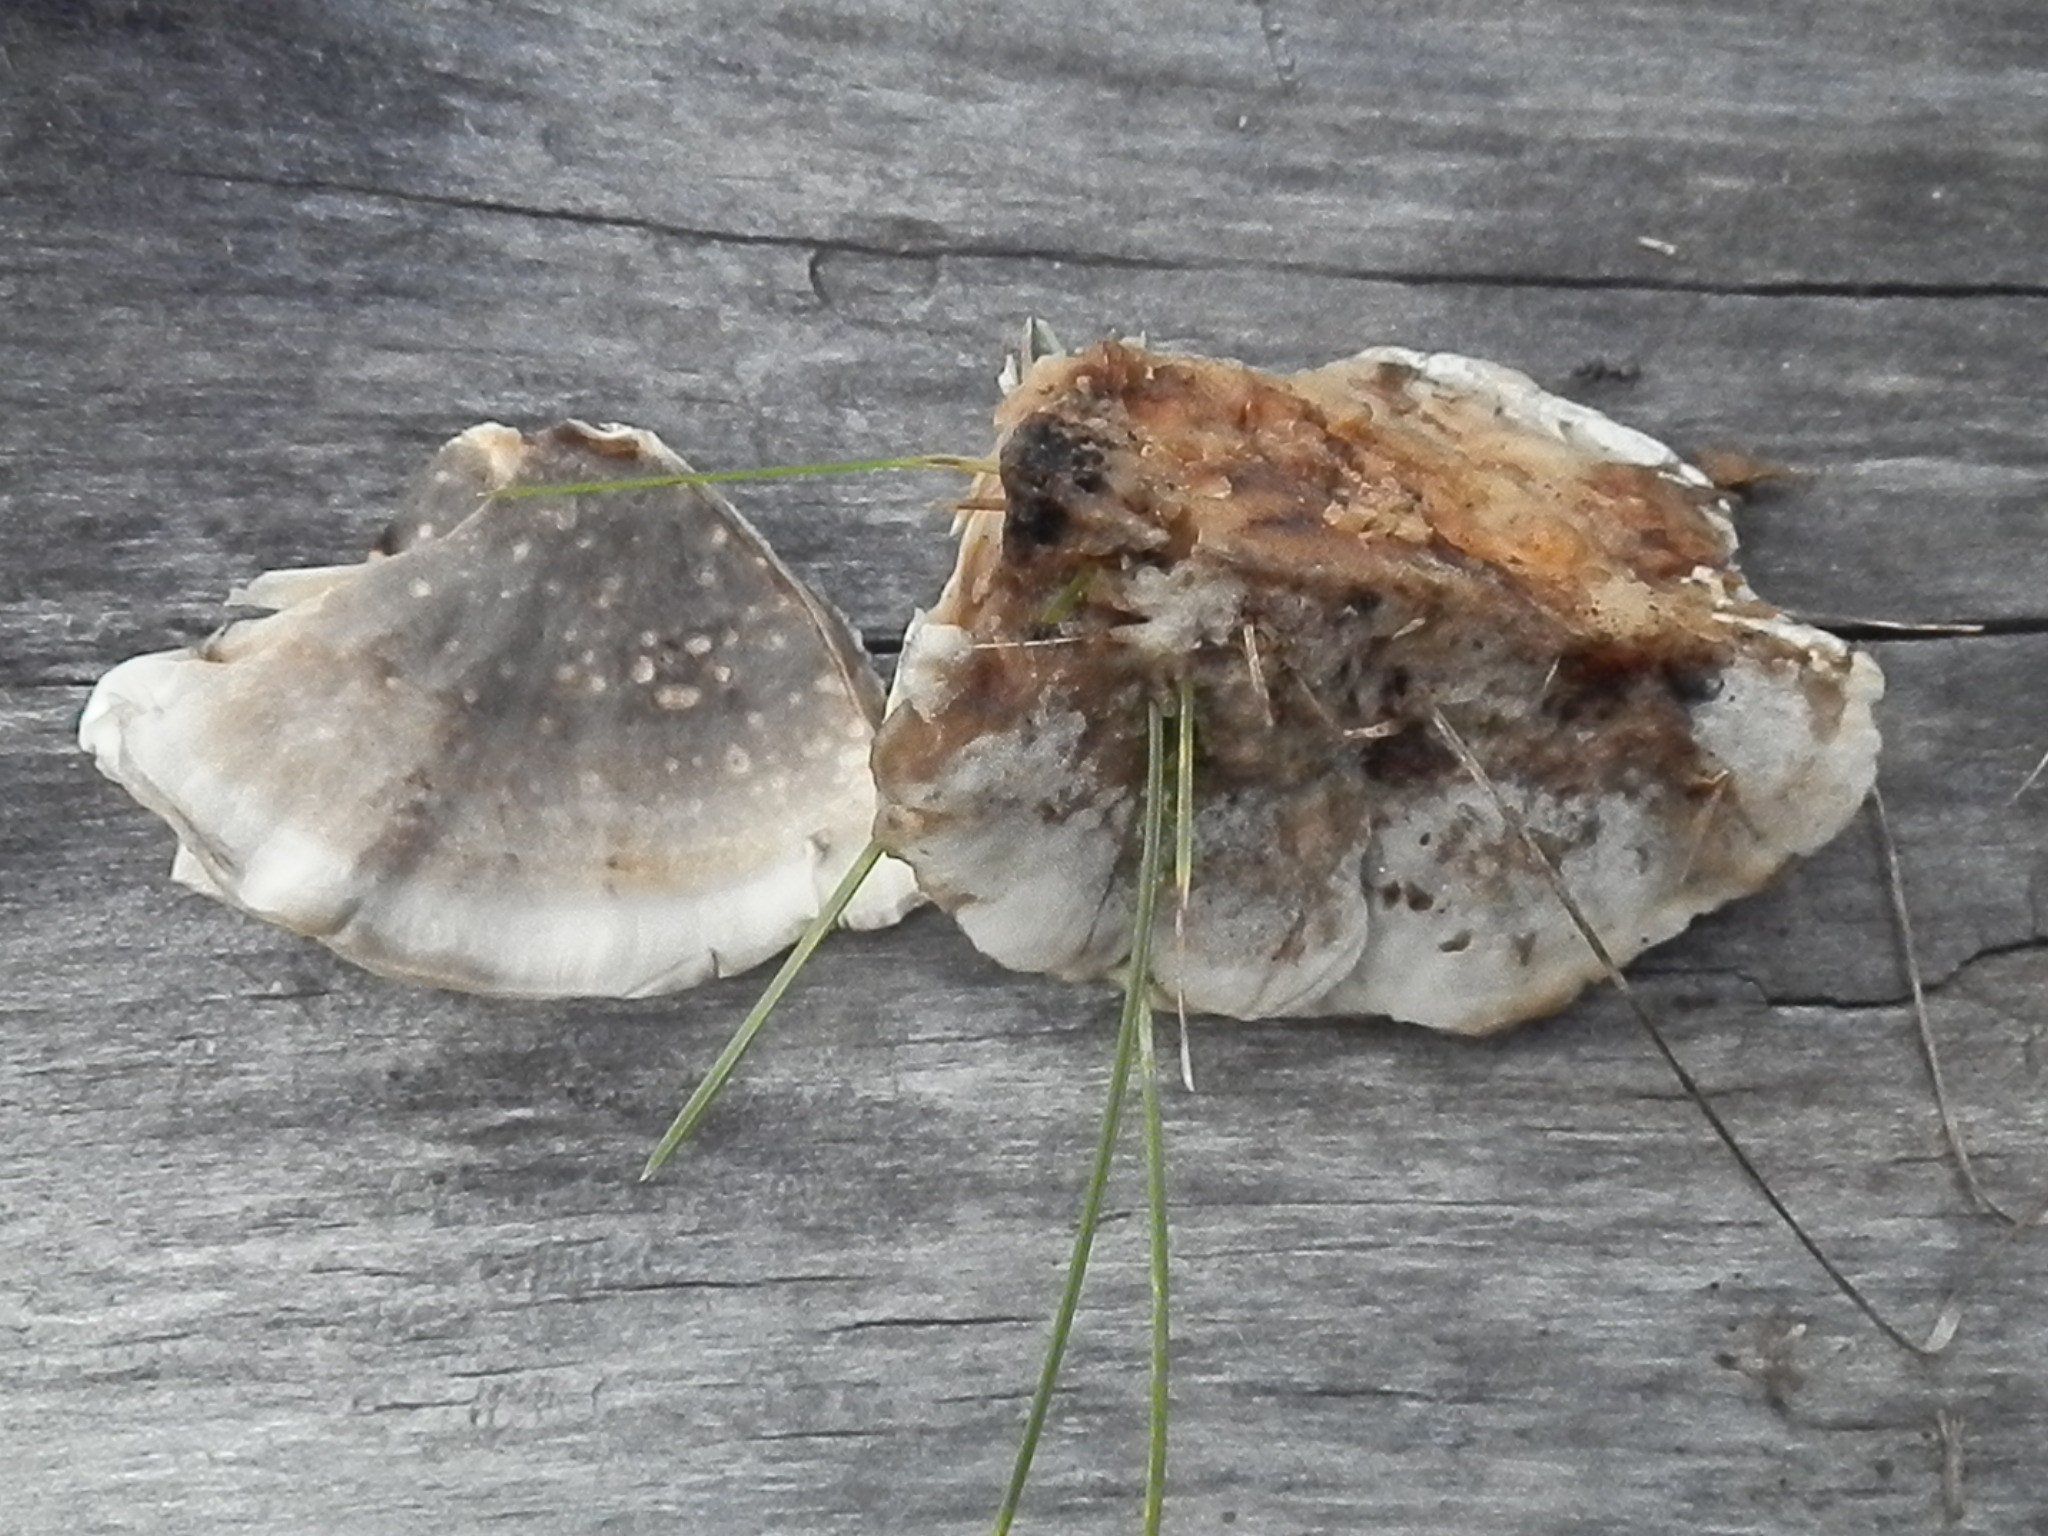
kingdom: Fungi
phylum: Basidiomycota
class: Agaricomycetes
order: Polyporales
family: Phanerochaetaceae
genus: Bjerkandera
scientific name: Bjerkandera adusta
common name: Smoky bracket
